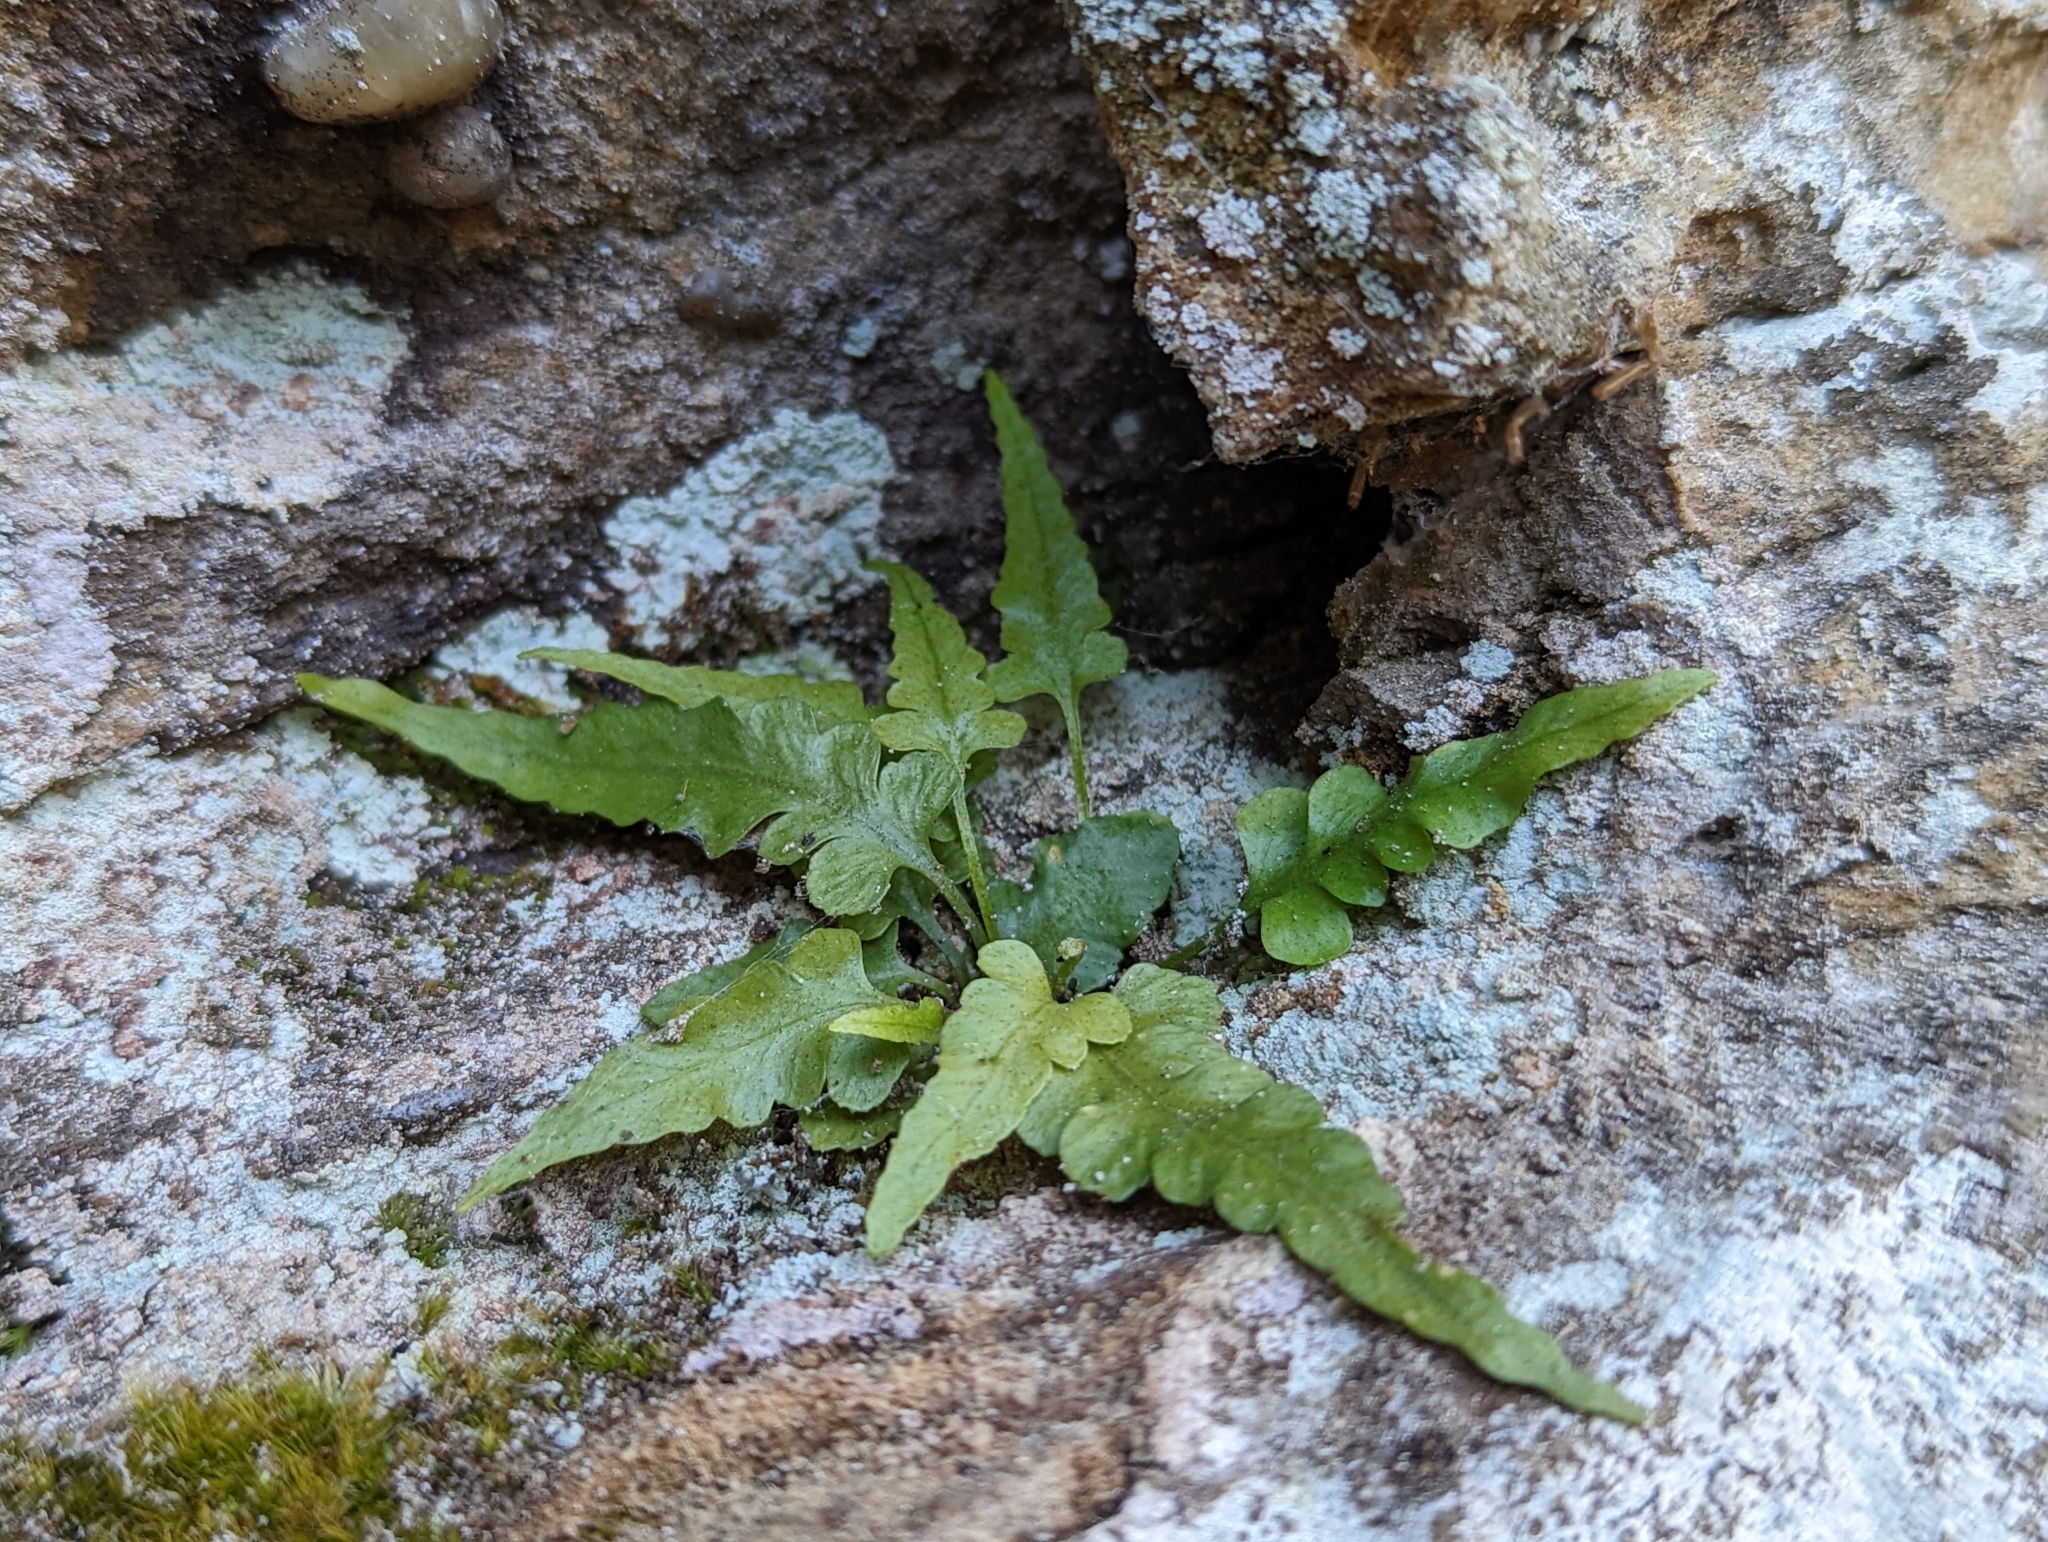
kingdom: Plantae
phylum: Tracheophyta
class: Polypodiopsida
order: Polypodiales
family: Aspleniaceae
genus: Asplenium
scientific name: Asplenium pinnatifidum
